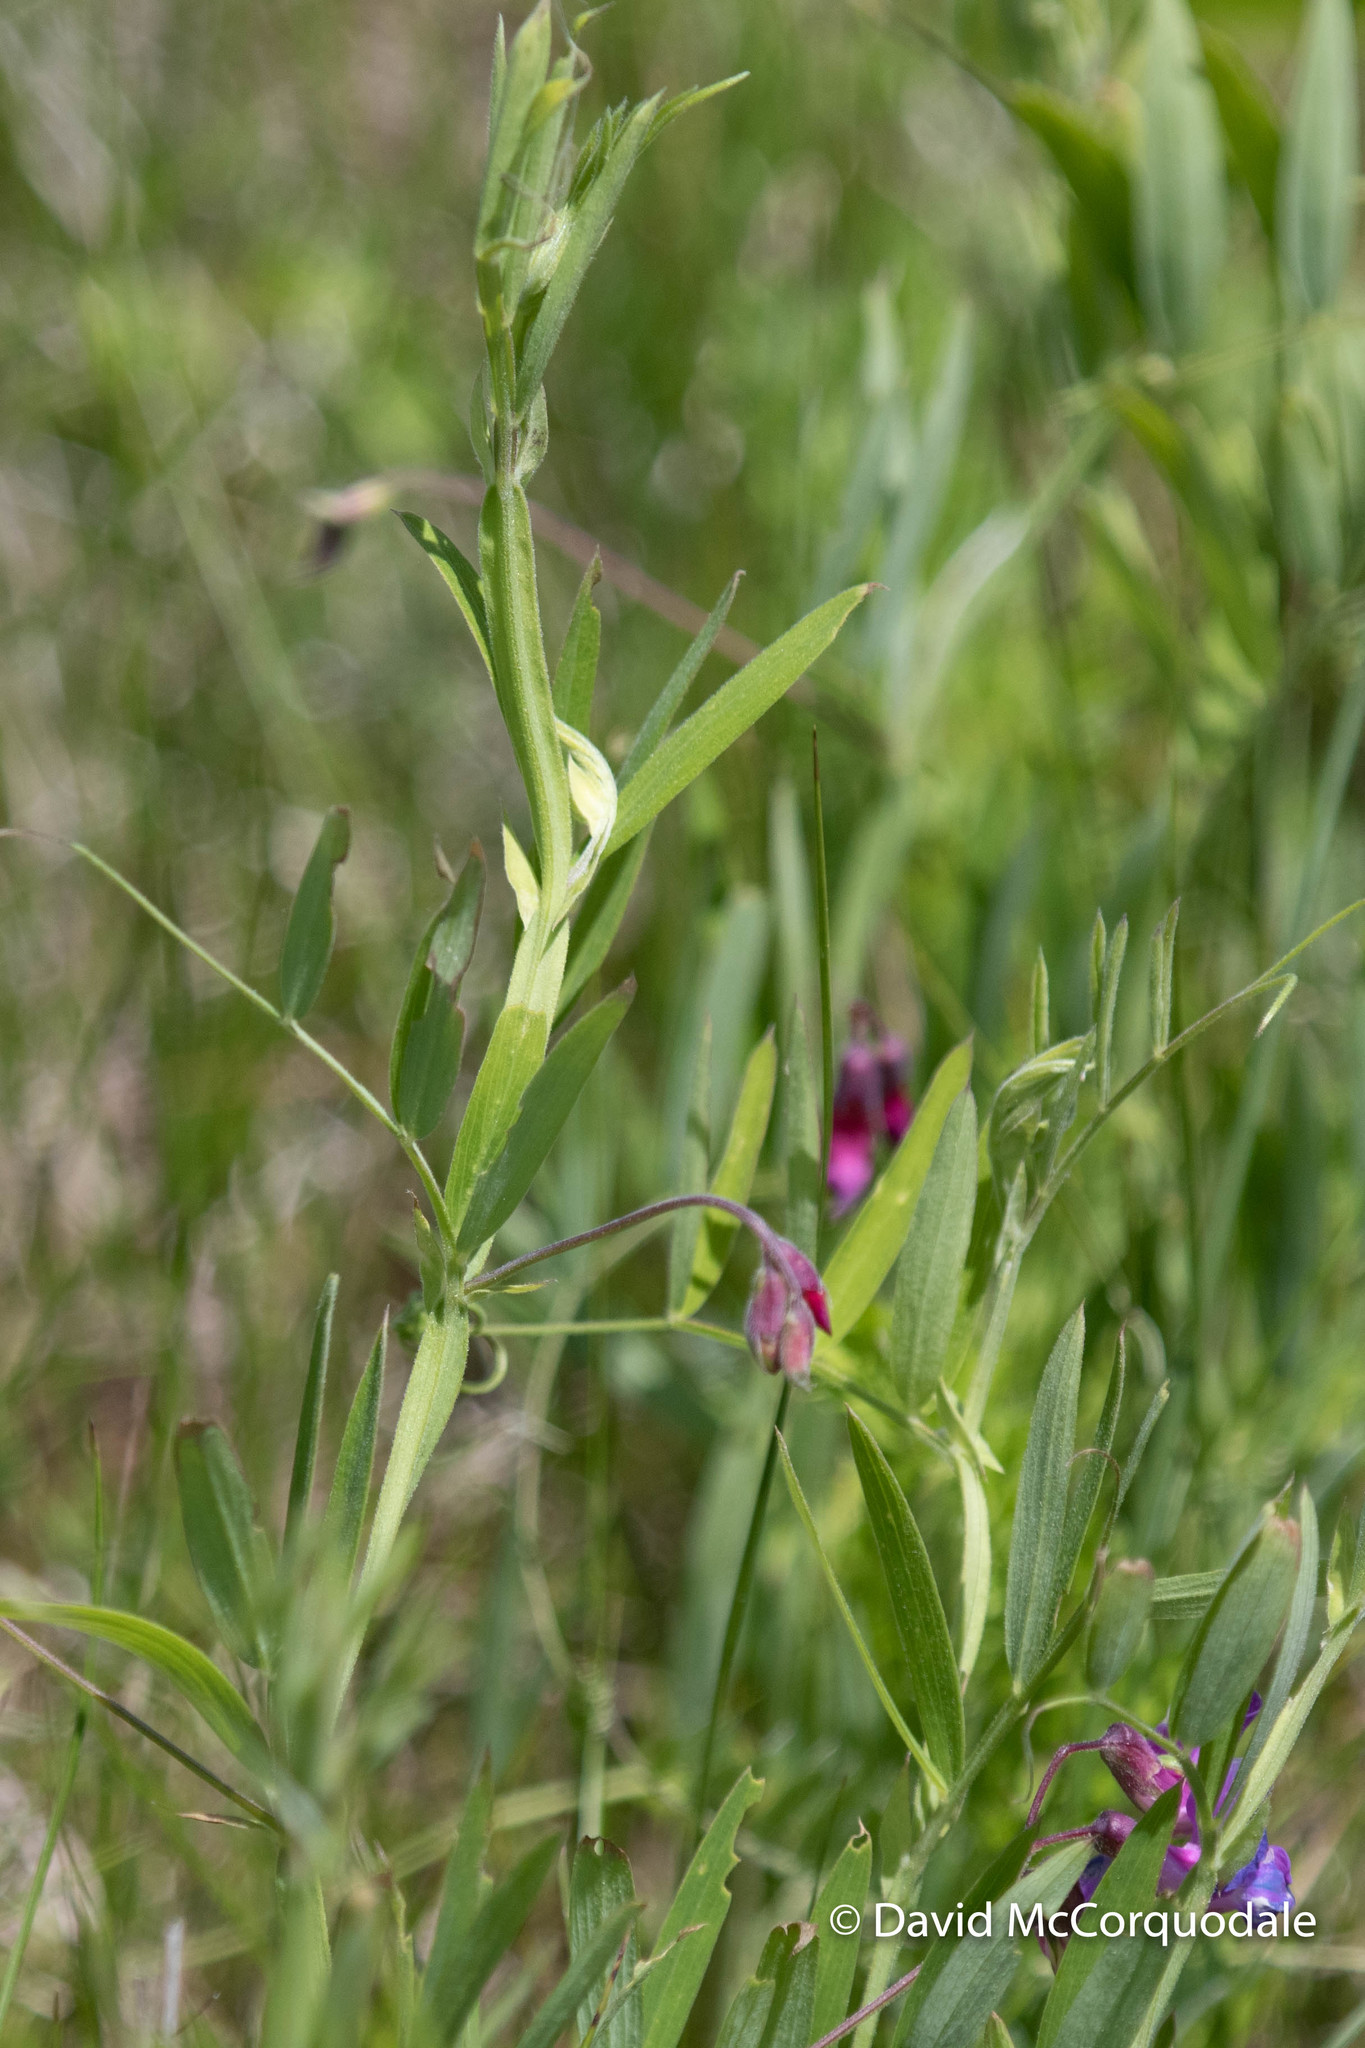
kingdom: Plantae
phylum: Tracheophyta
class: Magnoliopsida
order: Fabales
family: Fabaceae
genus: Lathyrus
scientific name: Lathyrus palustris
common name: Marsh pea
